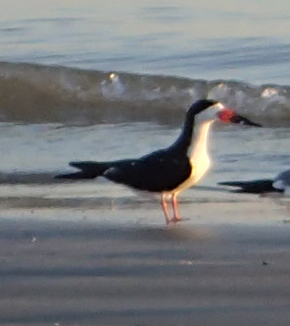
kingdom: Animalia
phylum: Chordata
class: Aves
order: Charadriiformes
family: Laridae
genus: Rynchops
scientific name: Rynchops niger
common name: Black skimmer
